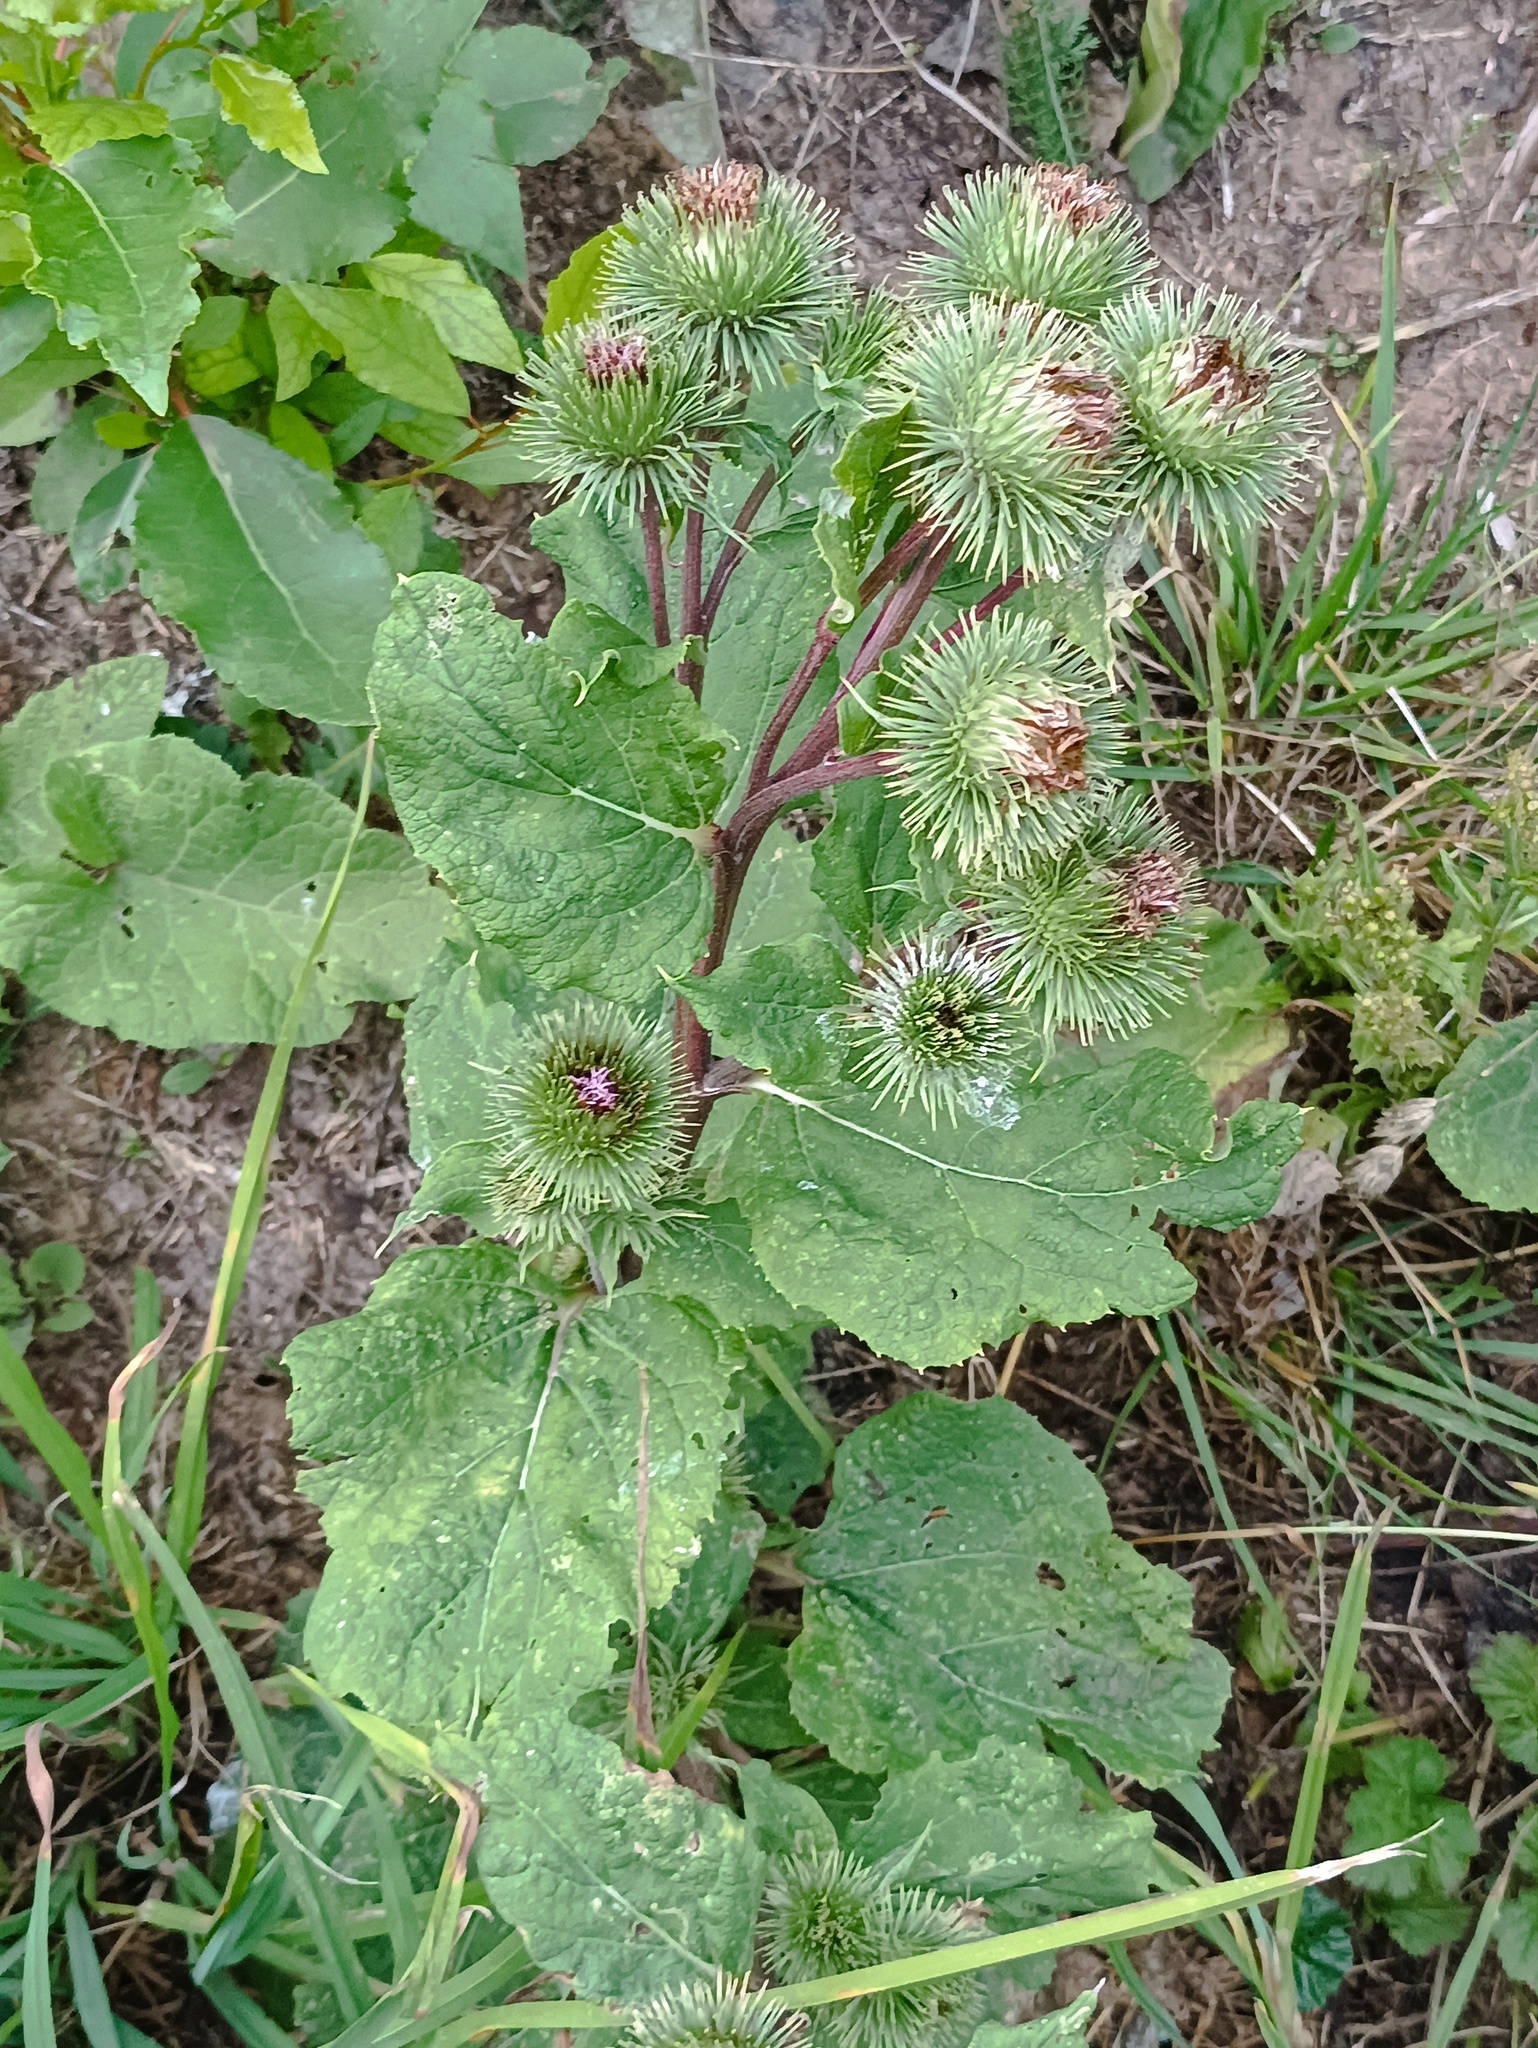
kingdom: Plantae
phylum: Tracheophyta
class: Magnoliopsida
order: Asterales
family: Asteraceae
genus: Arctium
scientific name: Arctium lappa
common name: Greater burdock
